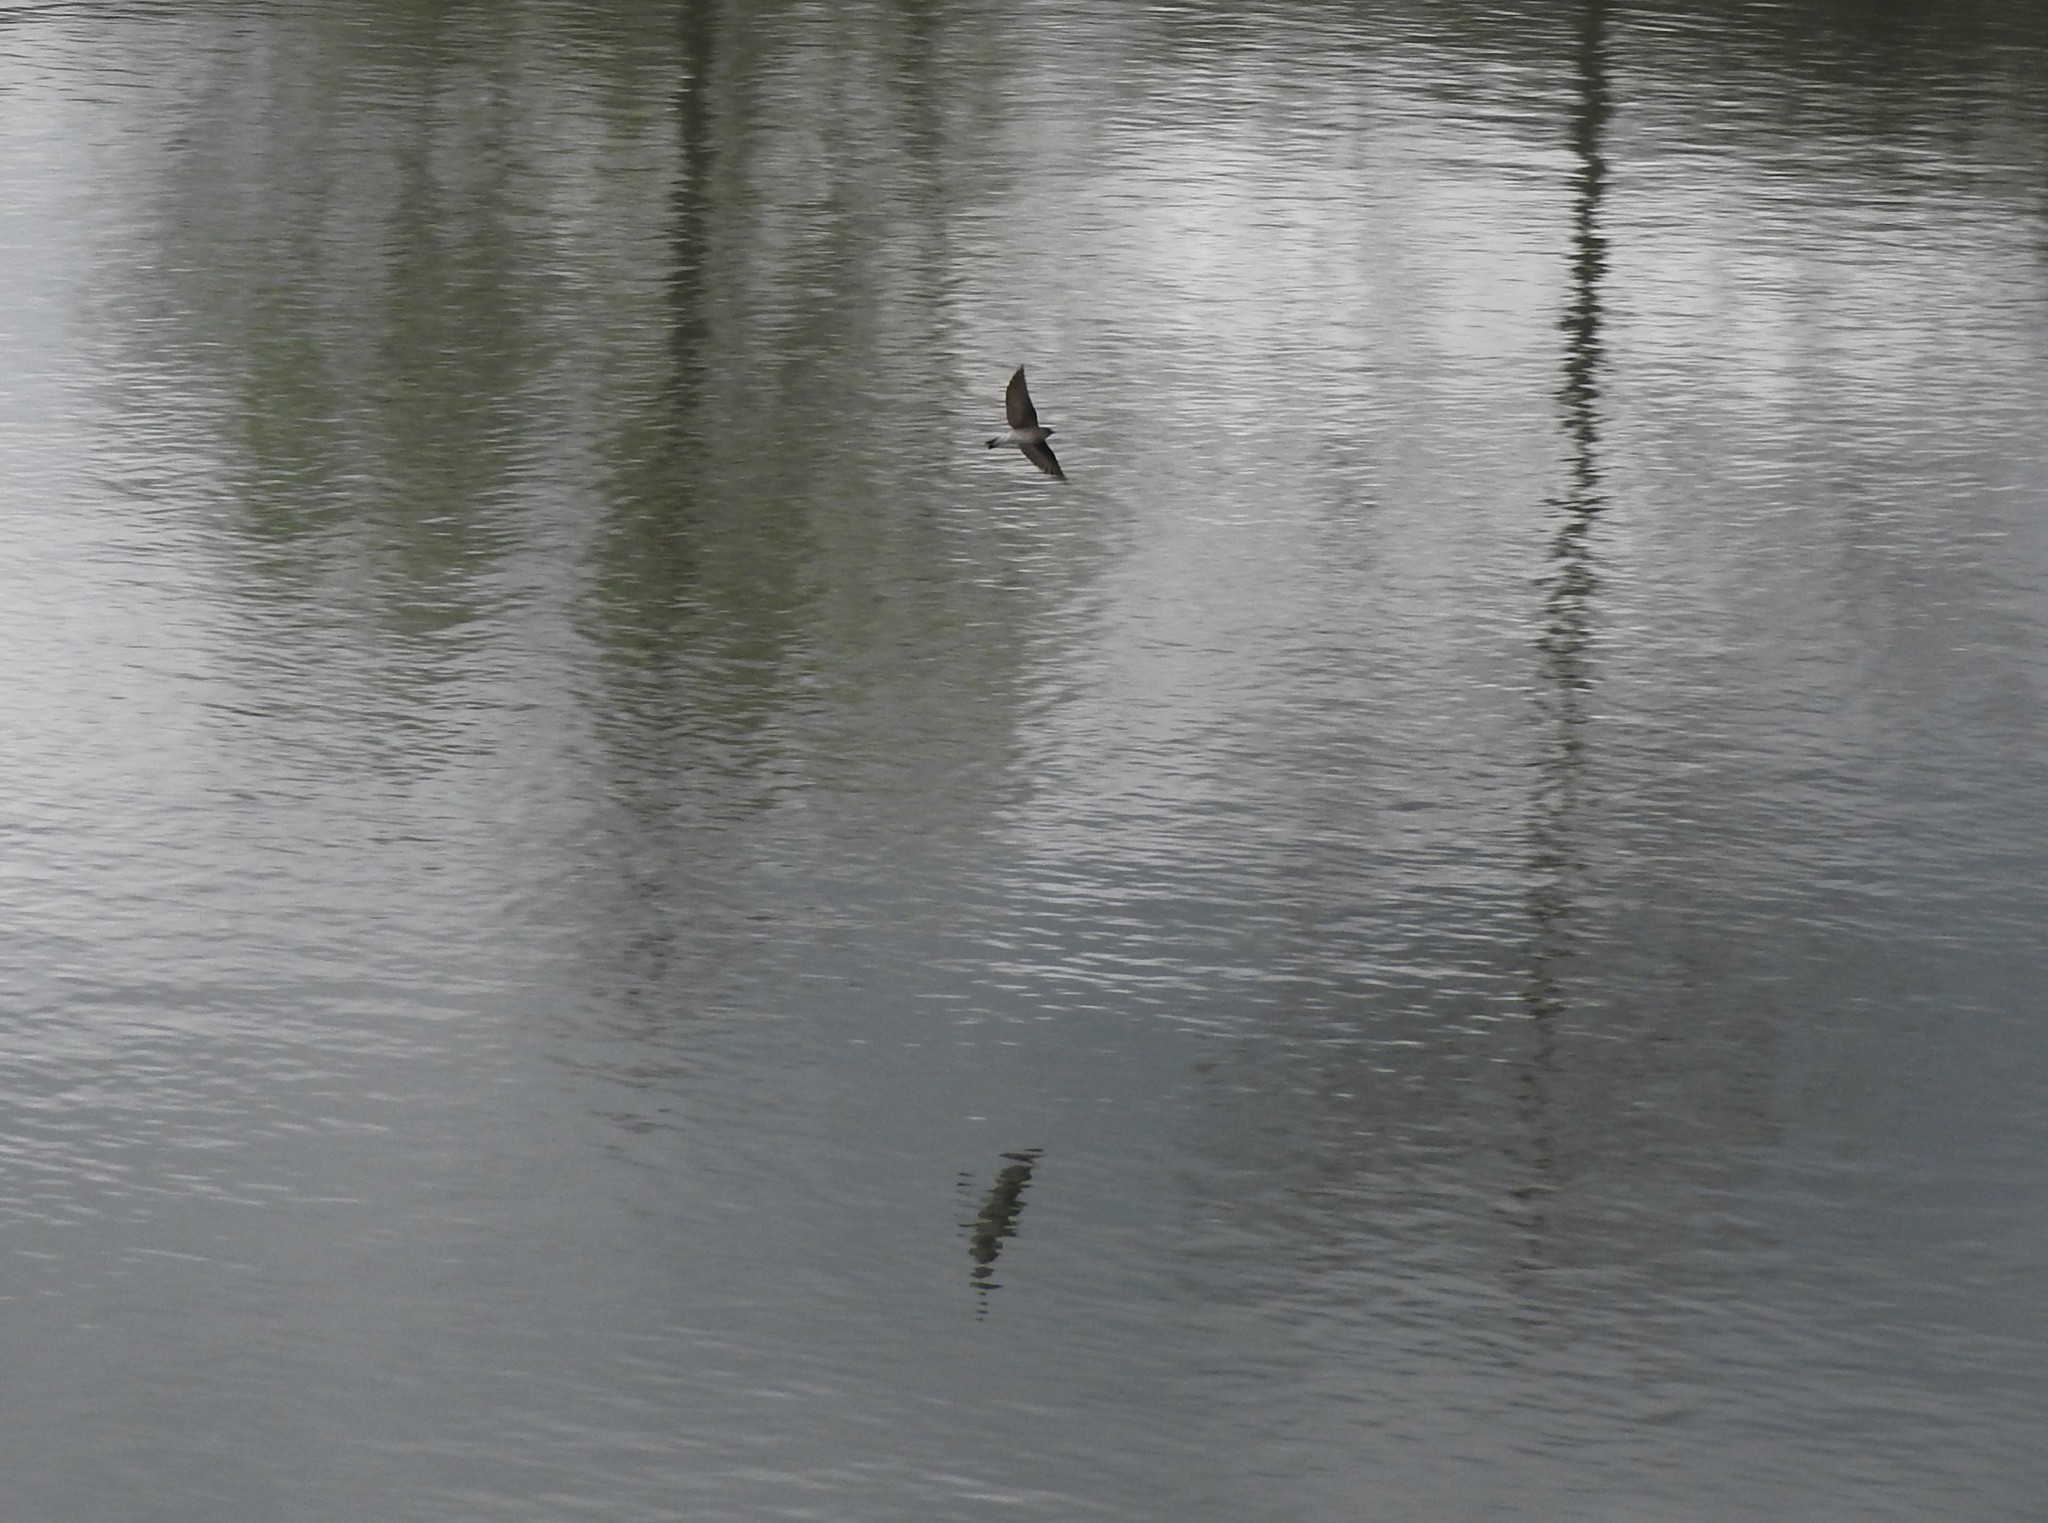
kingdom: Animalia
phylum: Chordata
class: Aves
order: Passeriformes
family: Hirundinidae
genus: Stelgidopteryx
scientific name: Stelgidopteryx serripennis
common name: Northern rough-winged swallow
